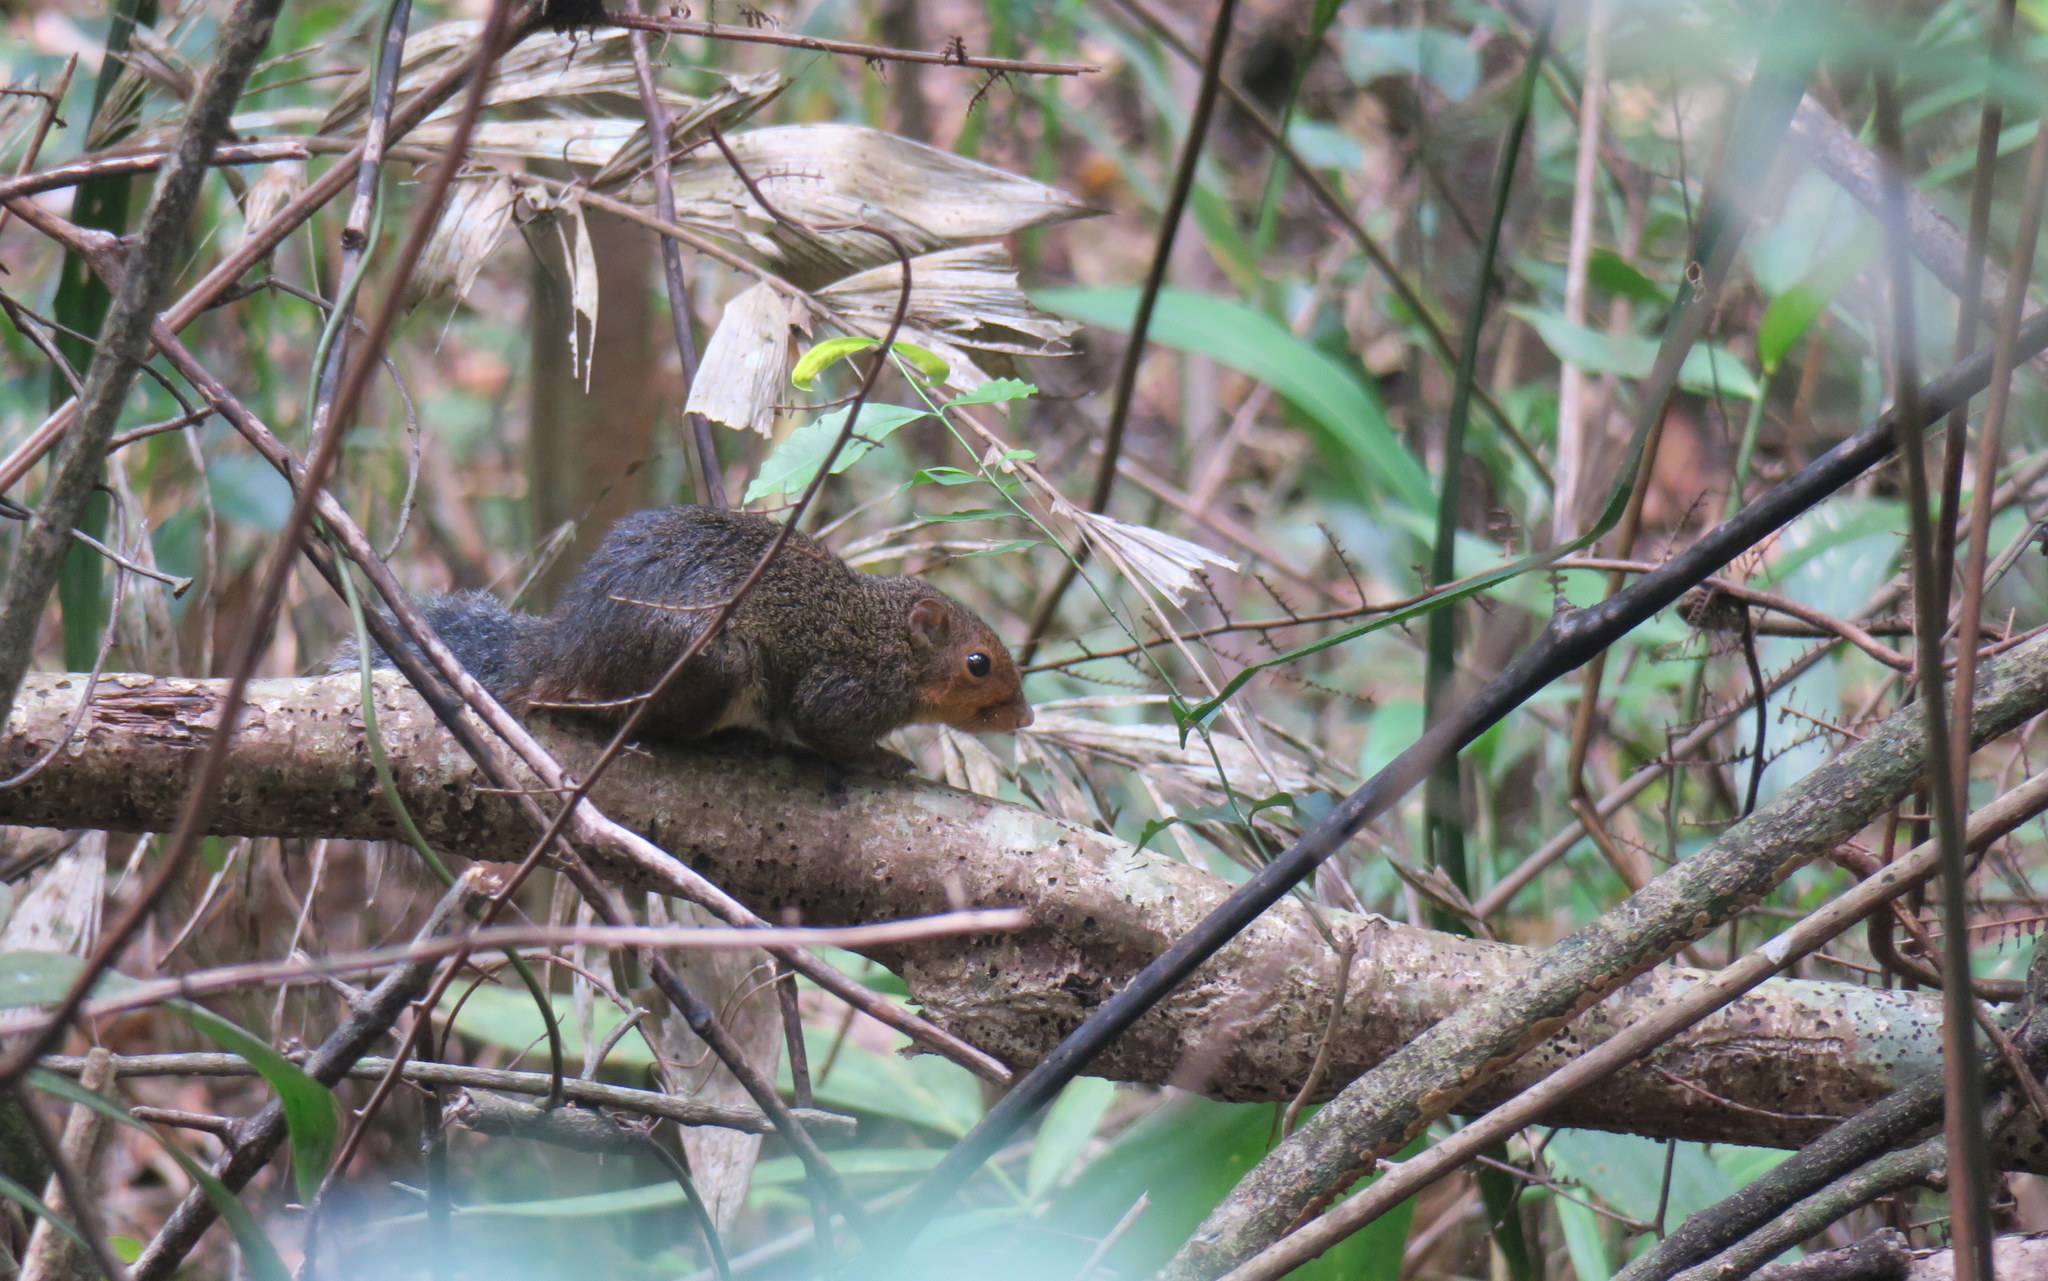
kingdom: Animalia
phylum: Chordata
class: Mammalia
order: Rodentia
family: Sciuridae
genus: Dremomys
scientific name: Dremomys rufigenis
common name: Asian red-cheeked squirrel
